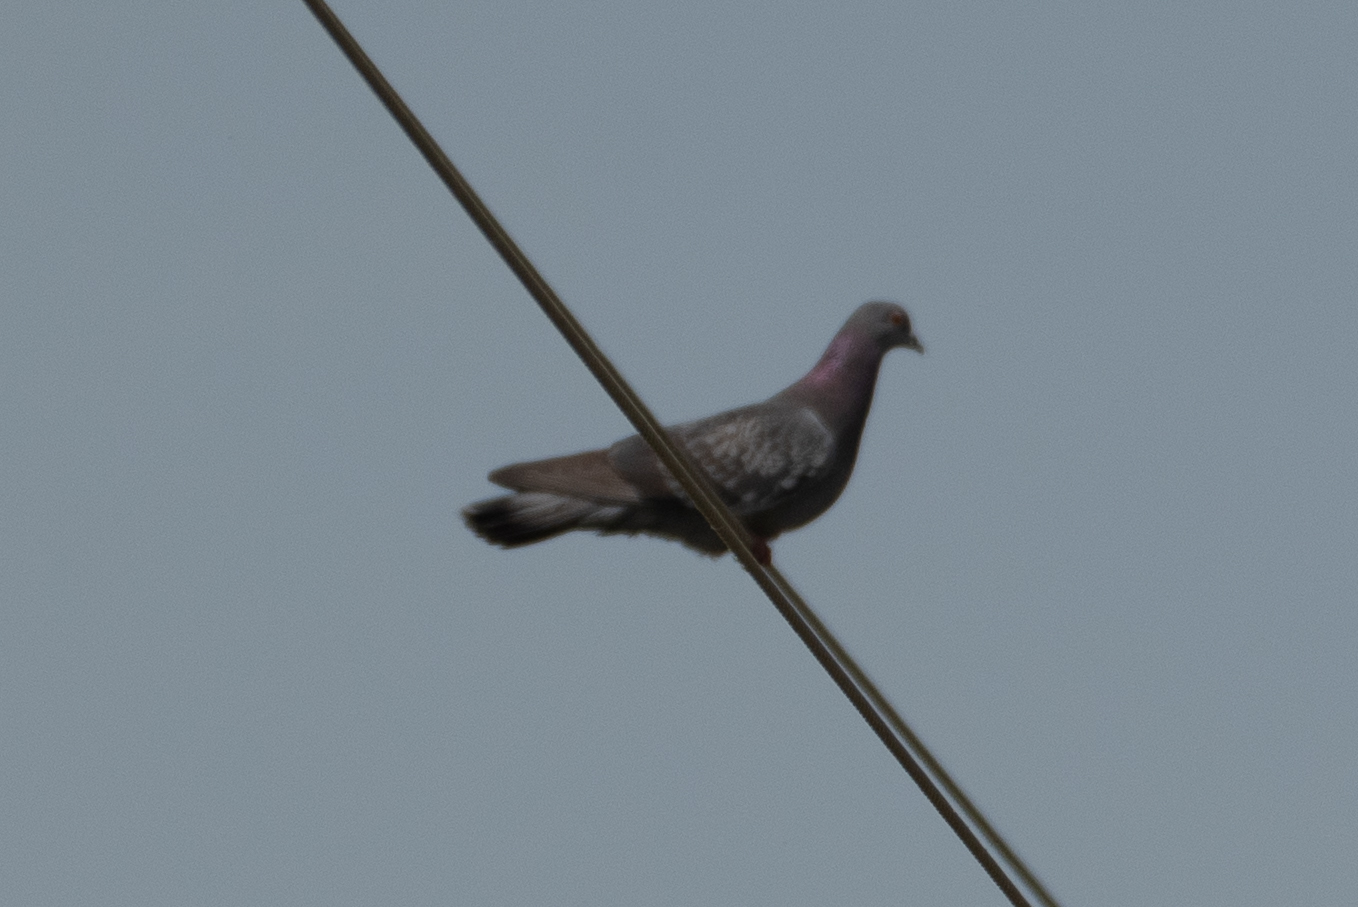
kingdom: Animalia
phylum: Chordata
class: Aves
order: Columbiformes
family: Columbidae
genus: Columba
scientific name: Columba livia
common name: Rock pigeon
